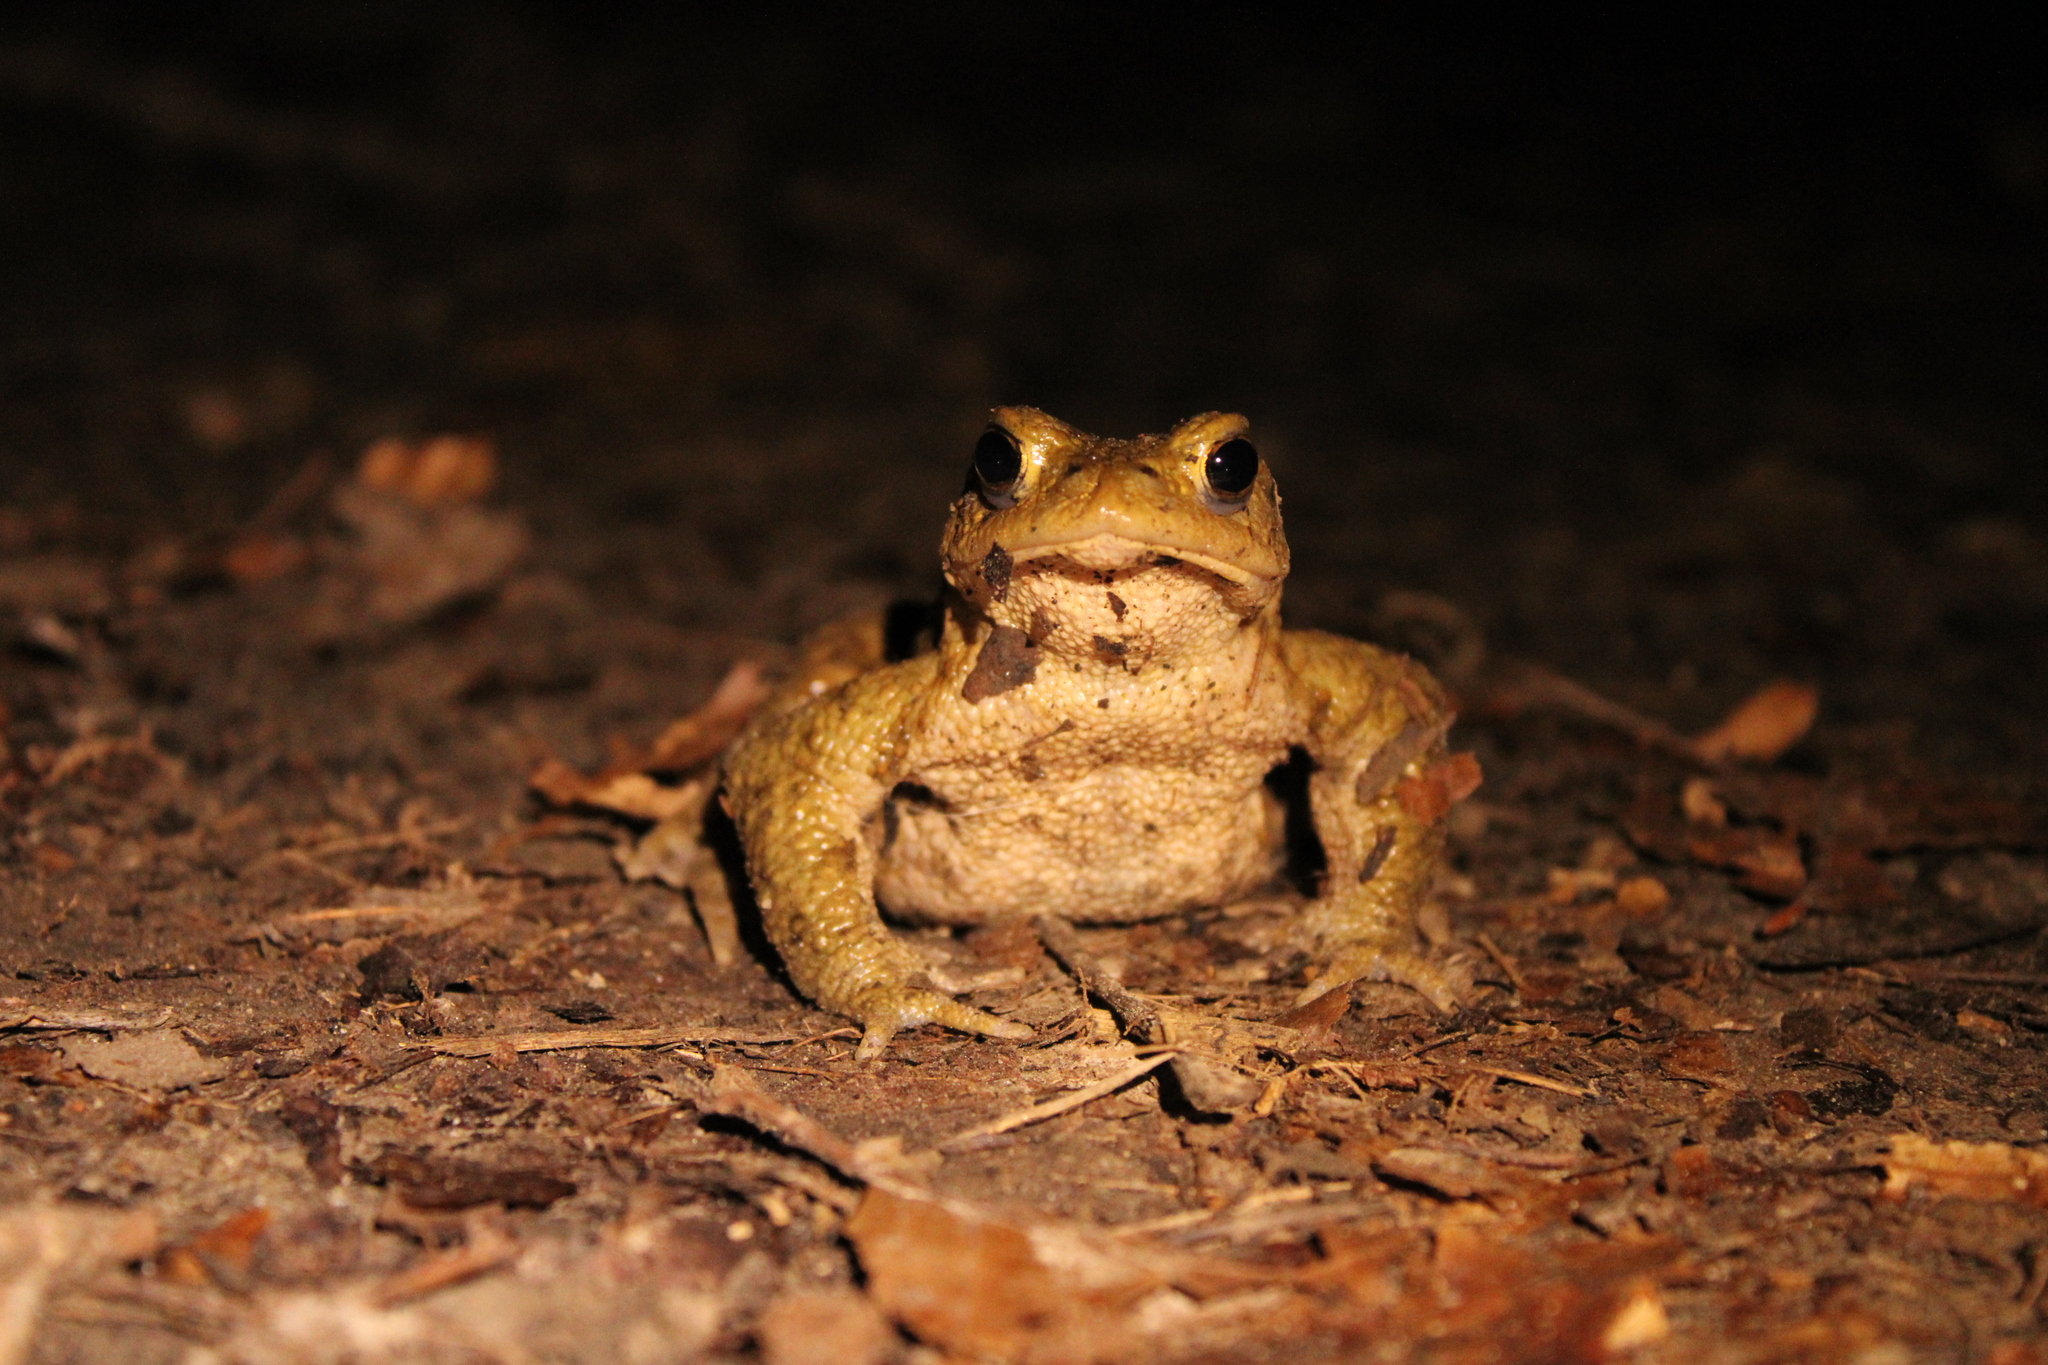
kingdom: Animalia
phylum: Chordata
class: Amphibia
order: Anura
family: Bufonidae
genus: Bufo
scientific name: Bufo bufo
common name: Common toad
